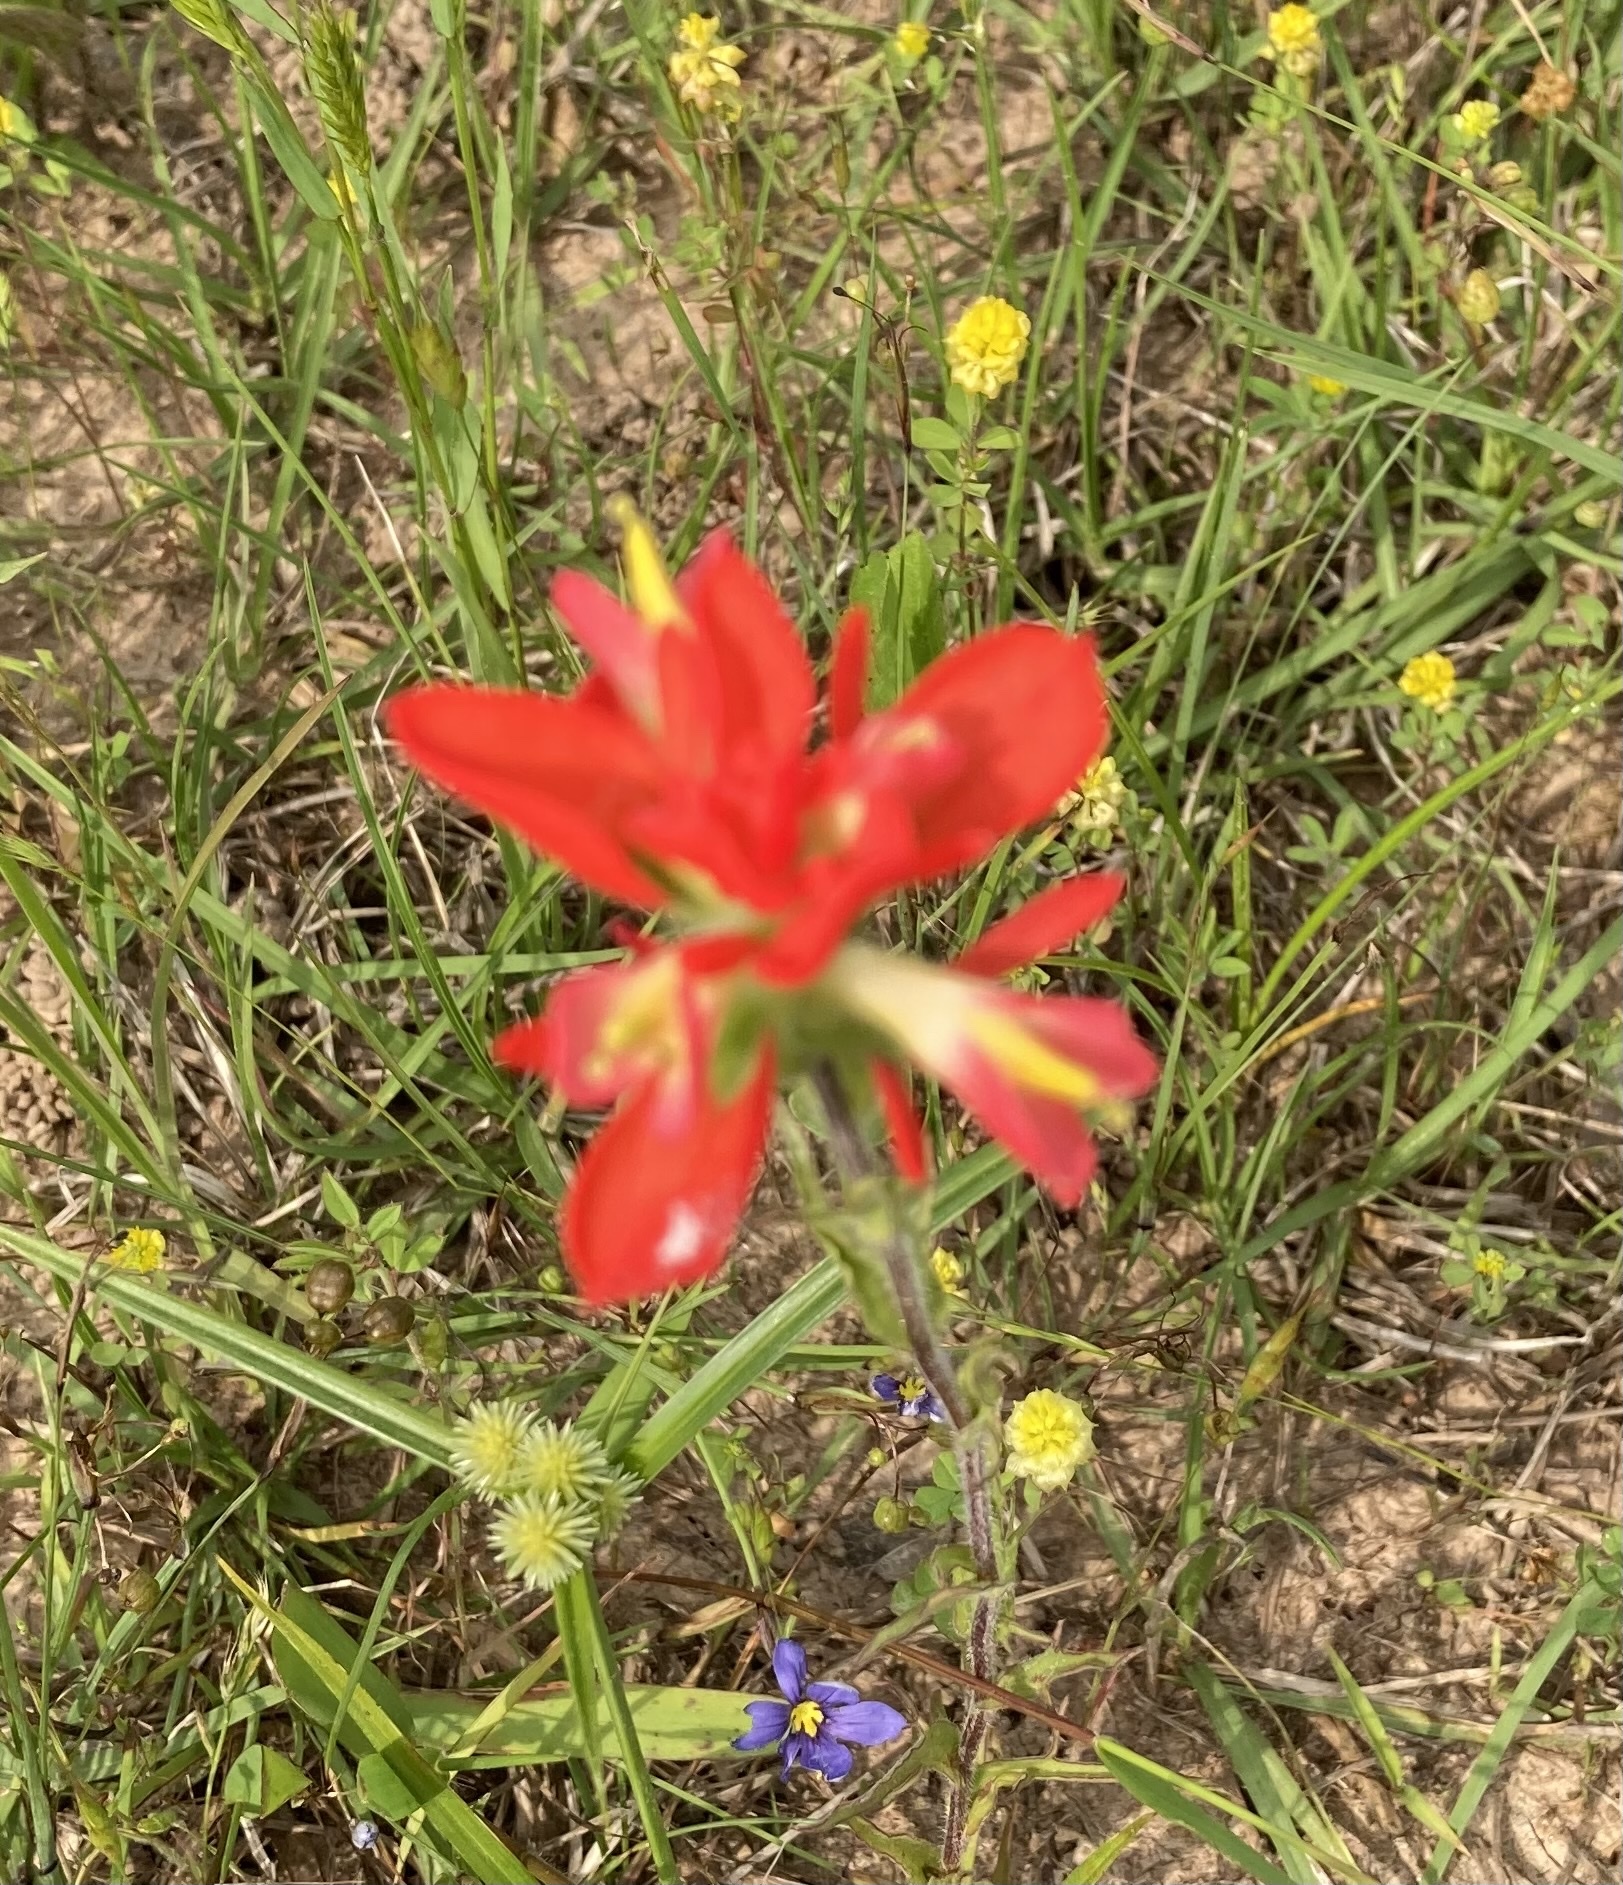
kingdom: Plantae
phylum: Tracheophyta
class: Magnoliopsida
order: Lamiales
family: Orobanchaceae
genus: Castilleja
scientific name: Castilleja indivisa
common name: Texas paintbrush
